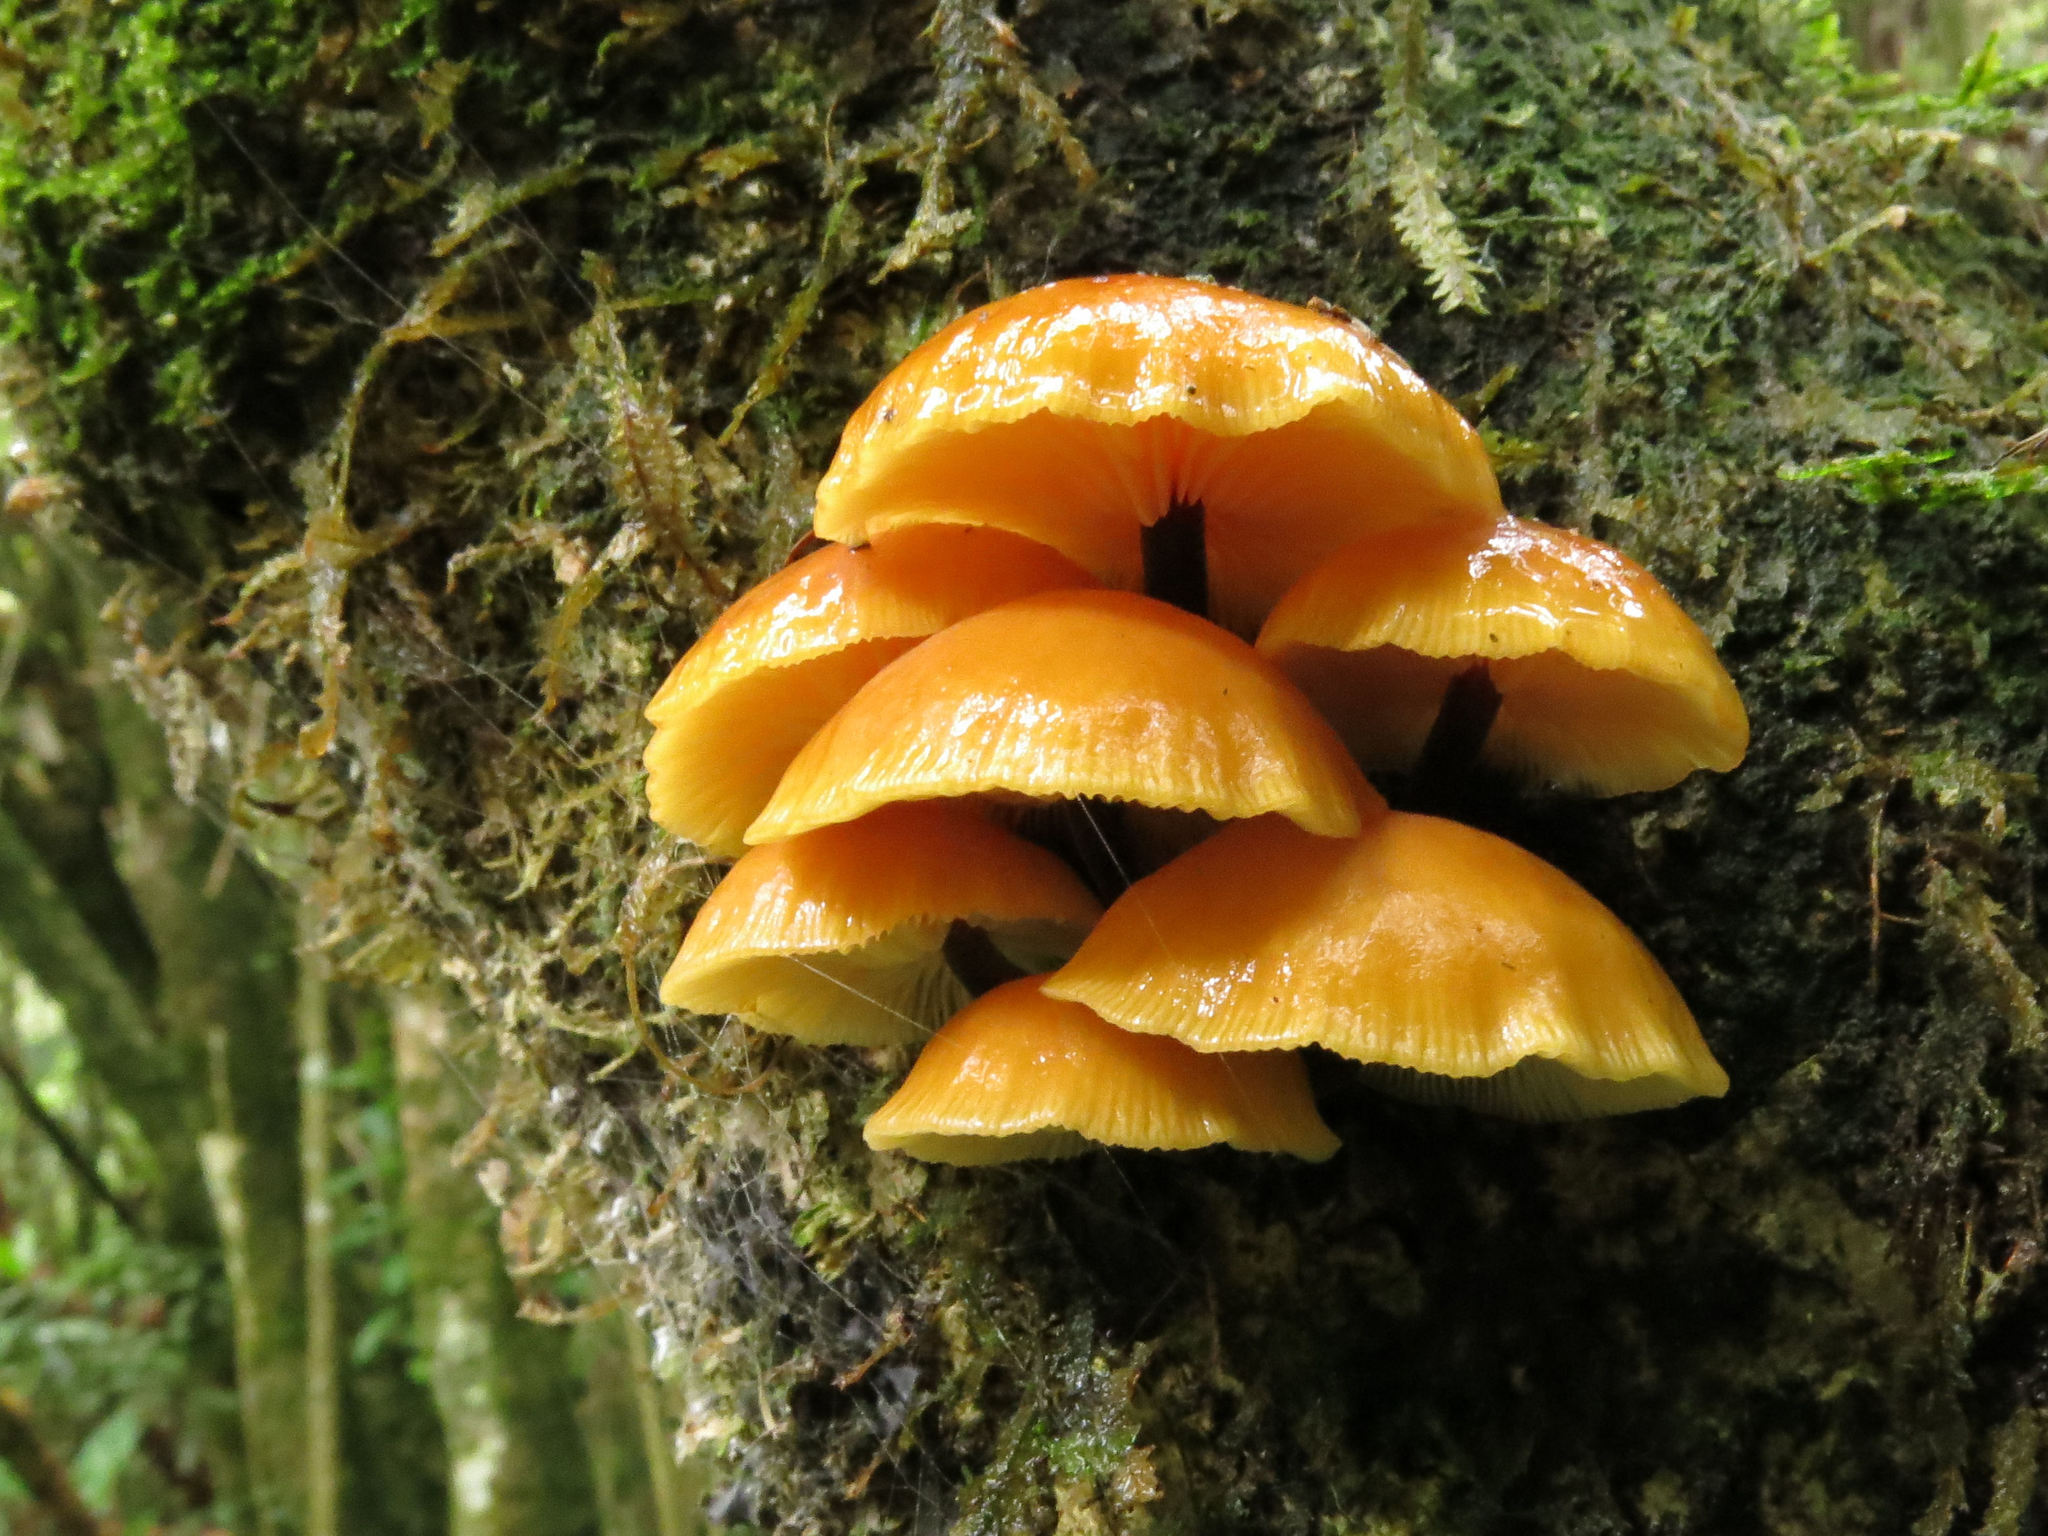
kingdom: Fungi
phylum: Basidiomycota
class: Agaricomycetes
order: Agaricales
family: Physalacriaceae
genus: Flammulina
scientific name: Flammulina velutipes
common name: Velvet shank
